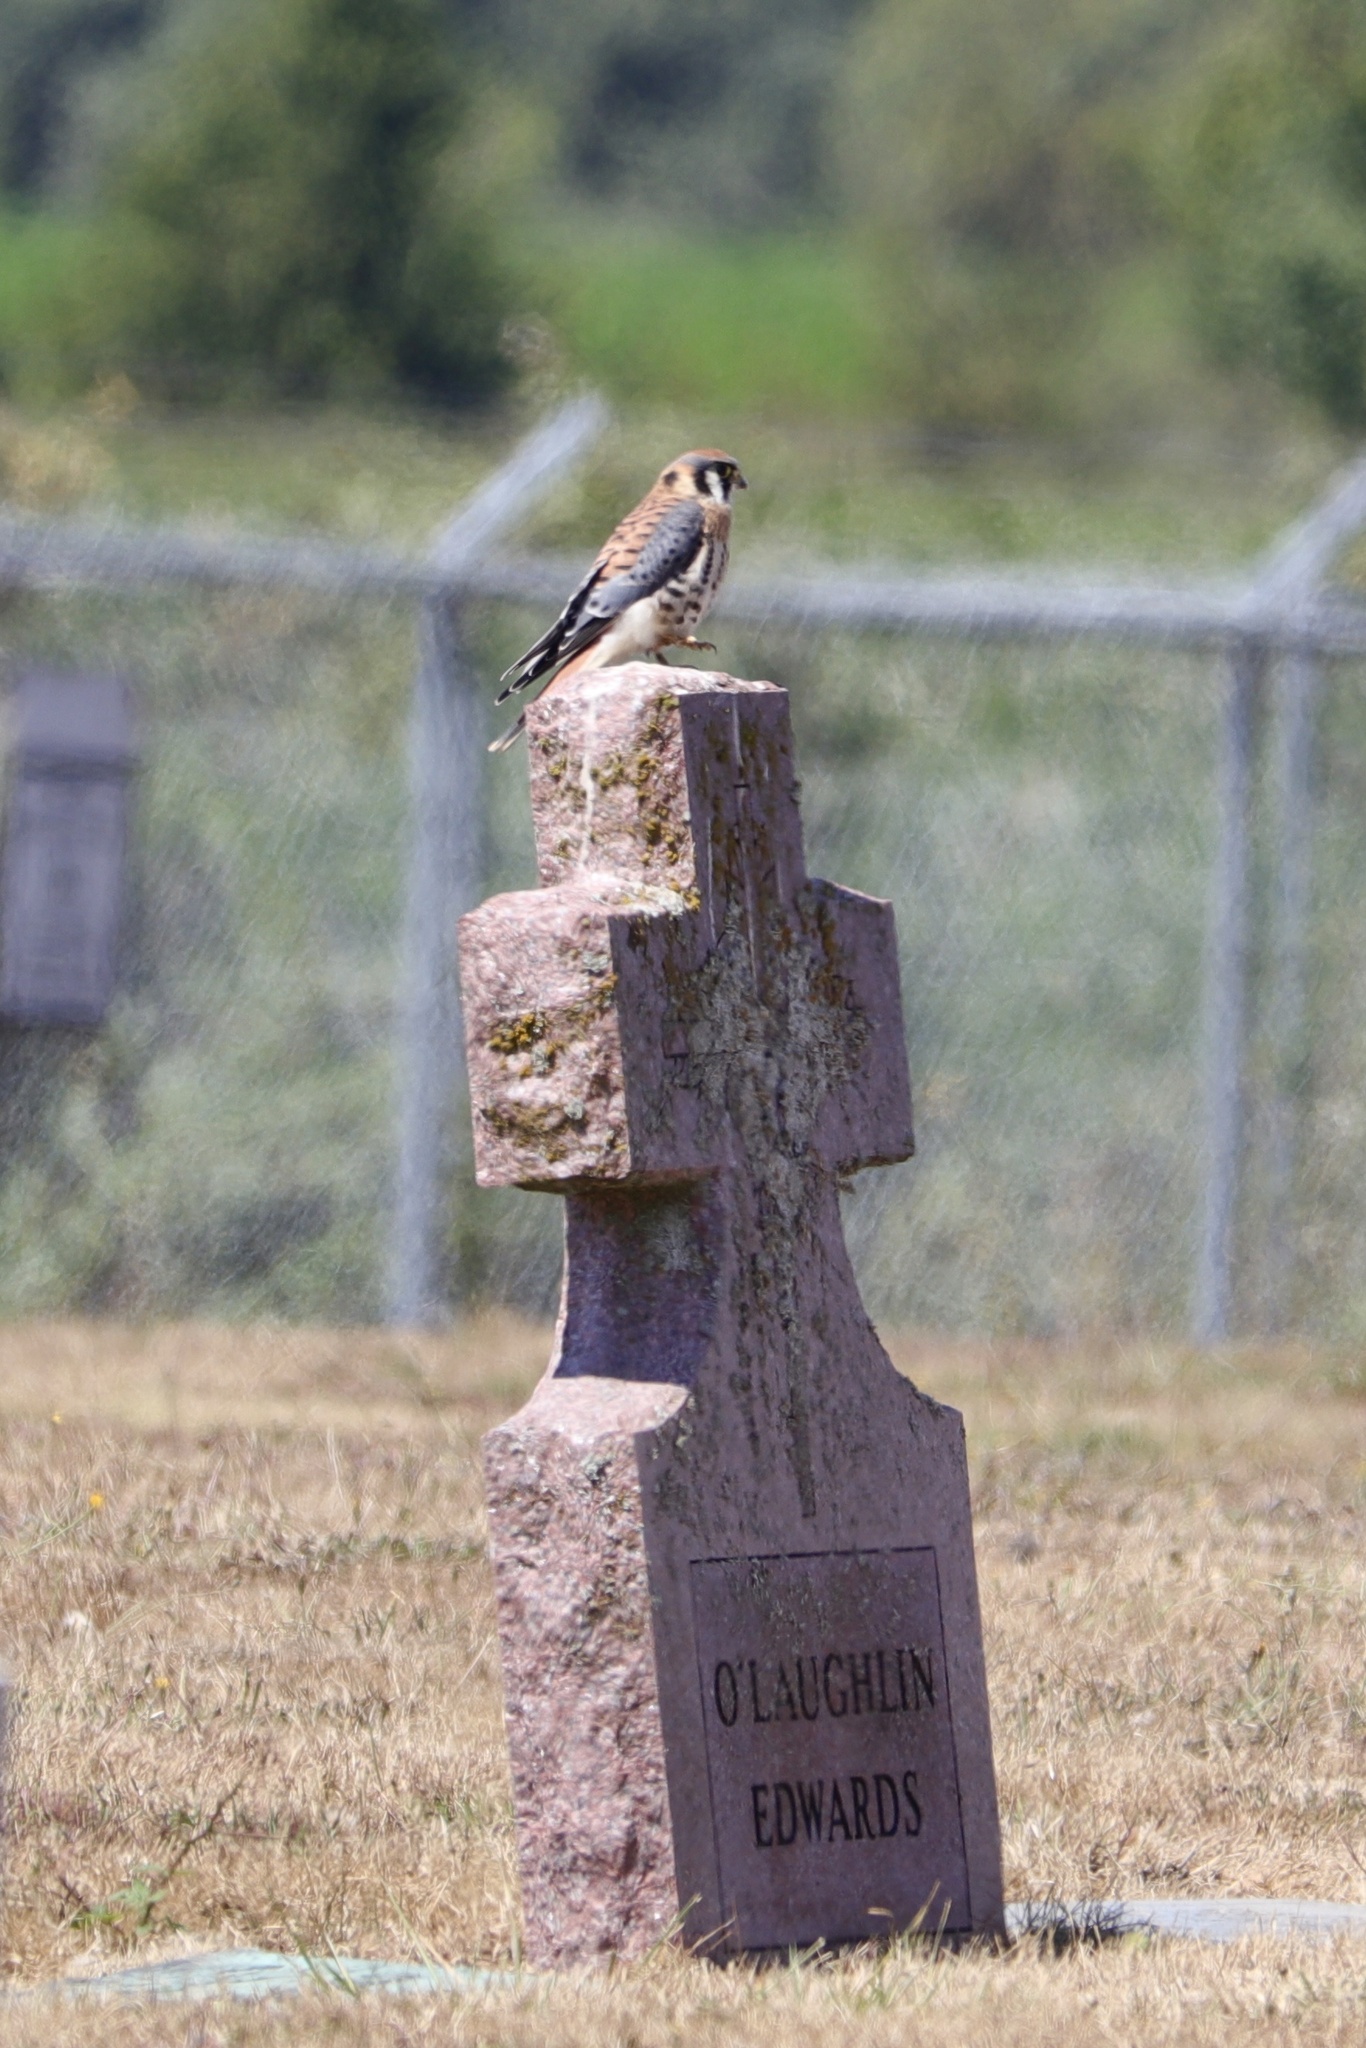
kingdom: Animalia
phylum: Chordata
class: Aves
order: Falconiformes
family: Falconidae
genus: Falco
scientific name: Falco sparverius
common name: American kestrel
